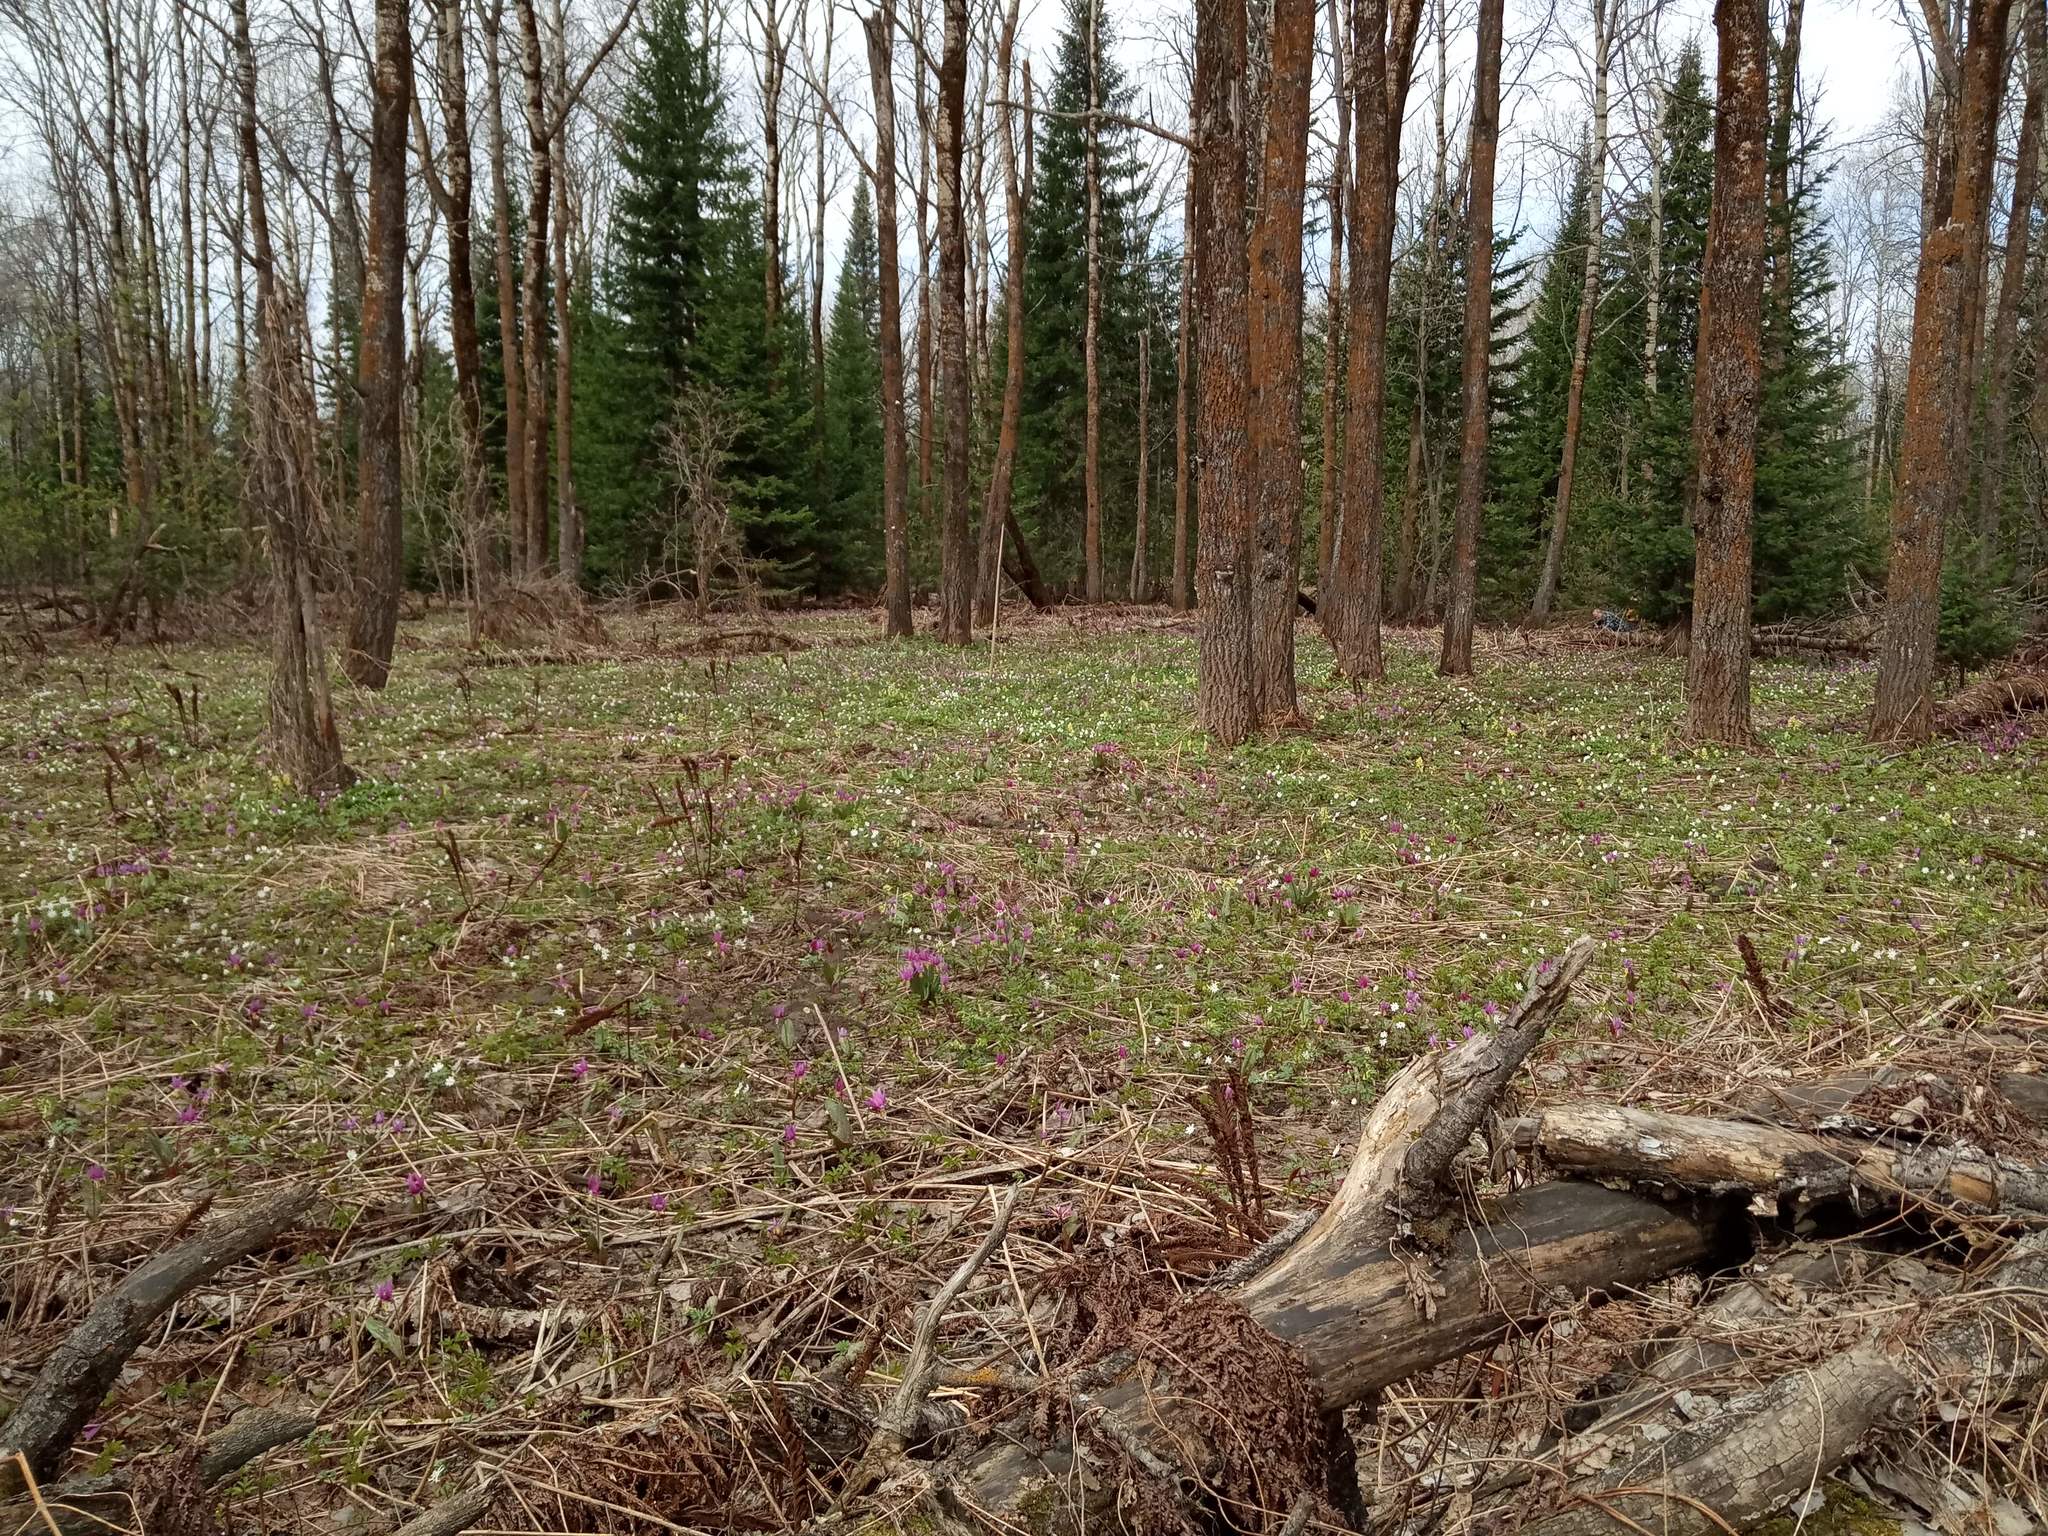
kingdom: Plantae
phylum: Tracheophyta
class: Magnoliopsida
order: Malpighiales
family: Salicaceae
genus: Populus
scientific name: Populus tremula
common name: European aspen
